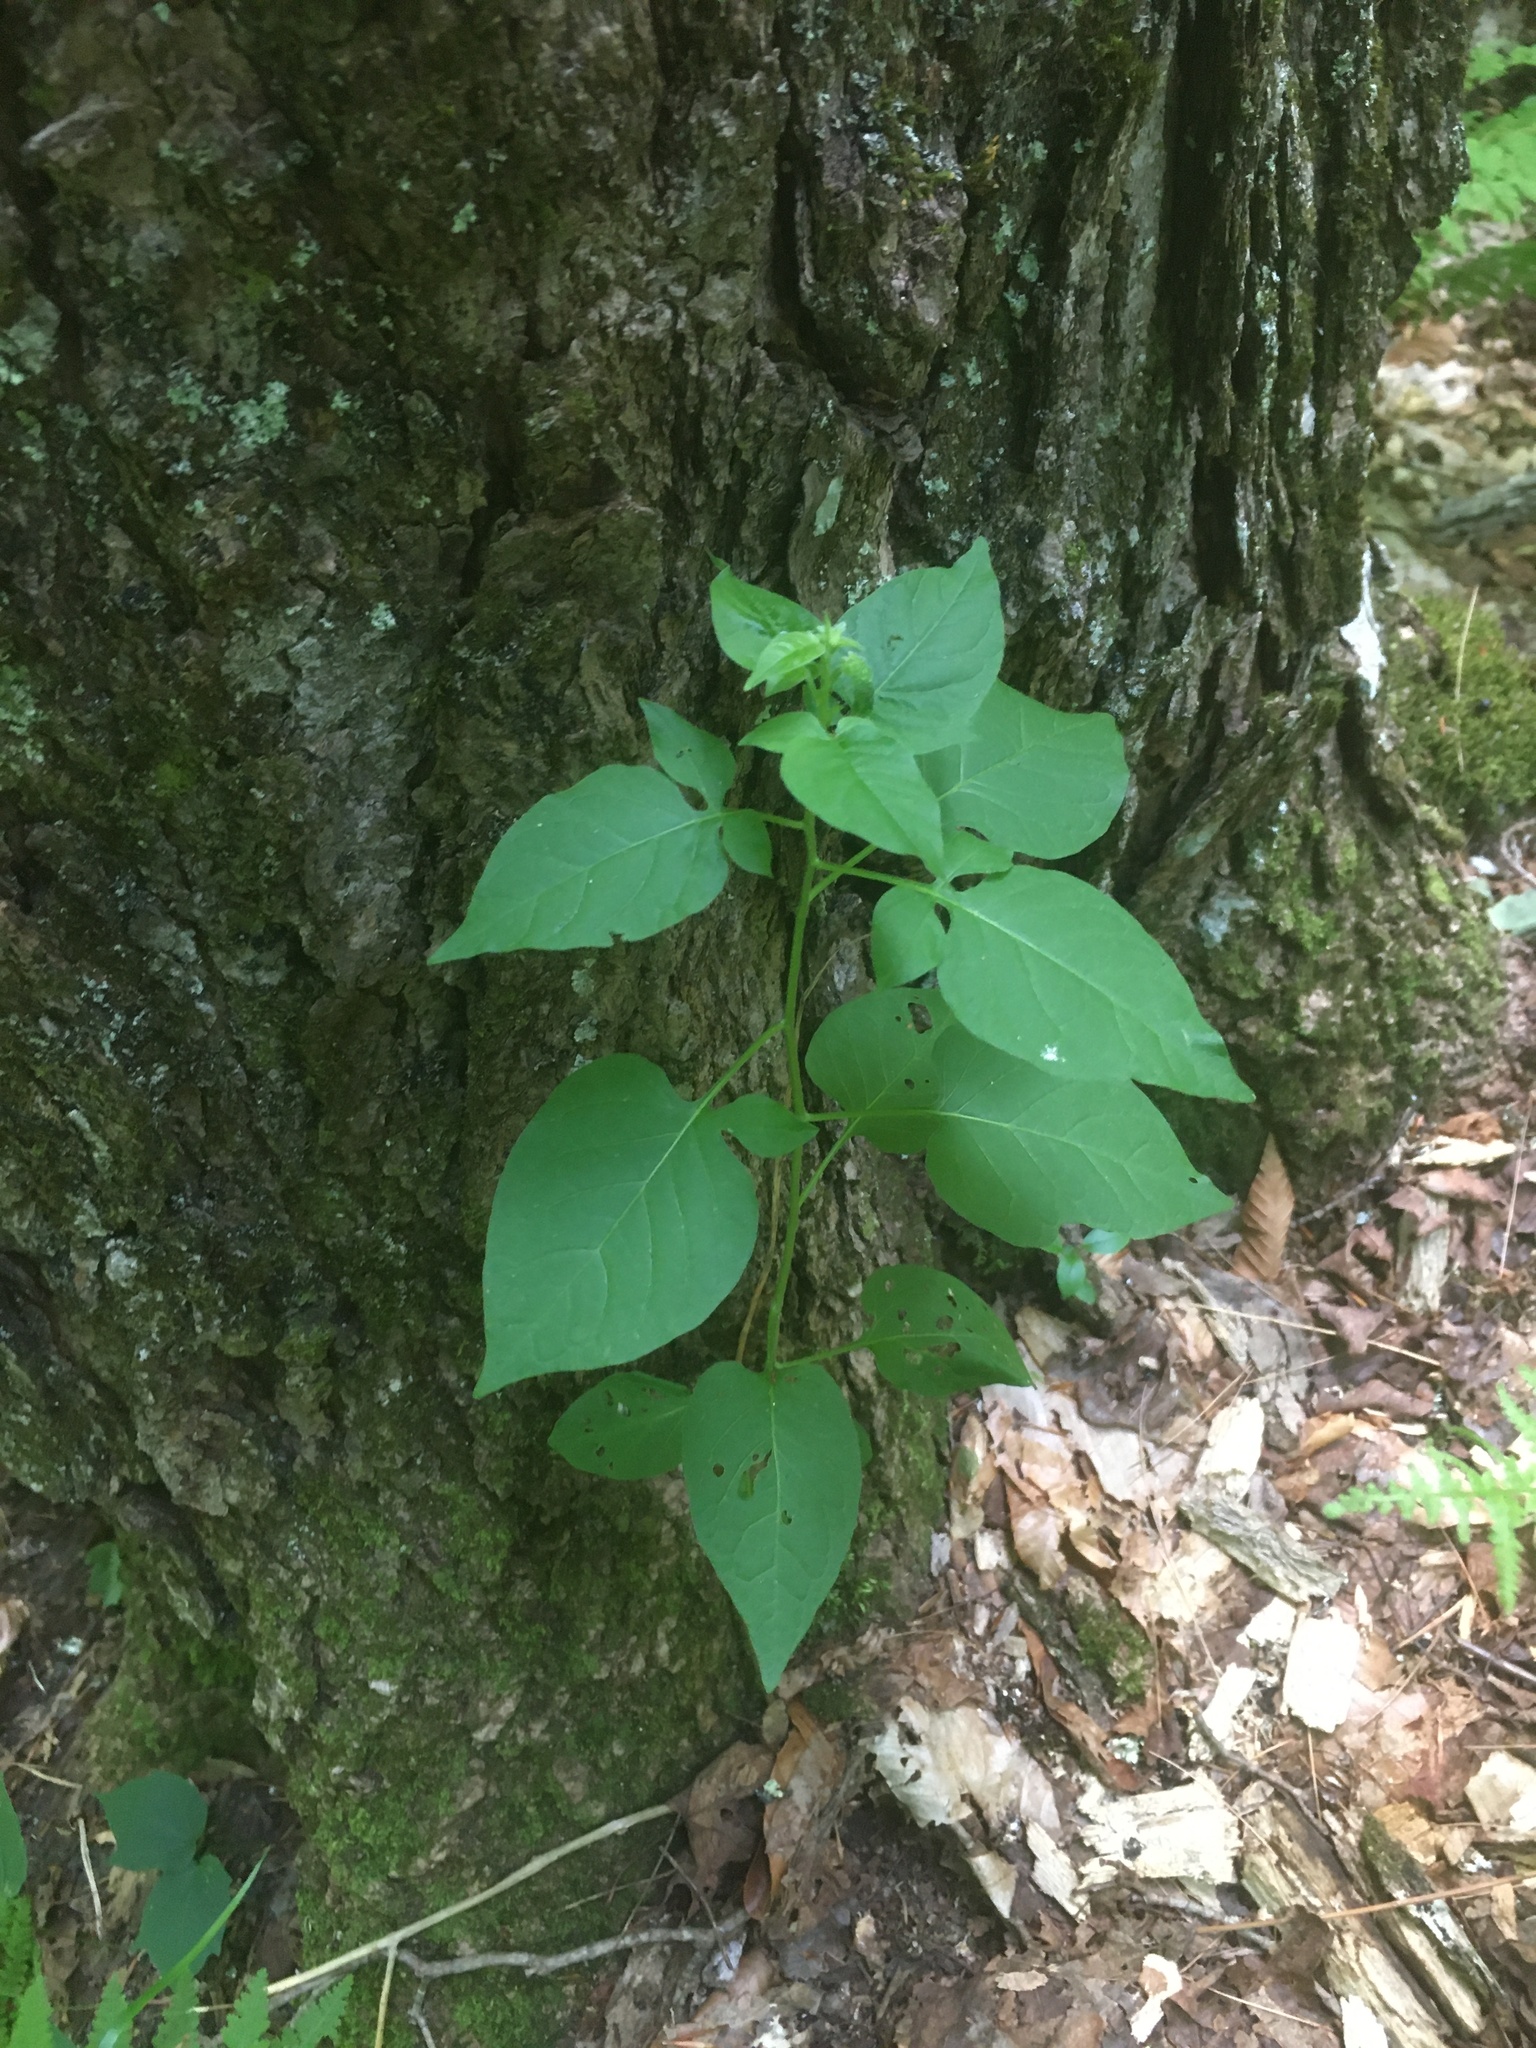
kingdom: Plantae
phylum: Tracheophyta
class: Magnoliopsida
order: Solanales
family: Solanaceae
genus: Solanum
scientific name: Solanum dulcamara
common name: Climbing nightshade
